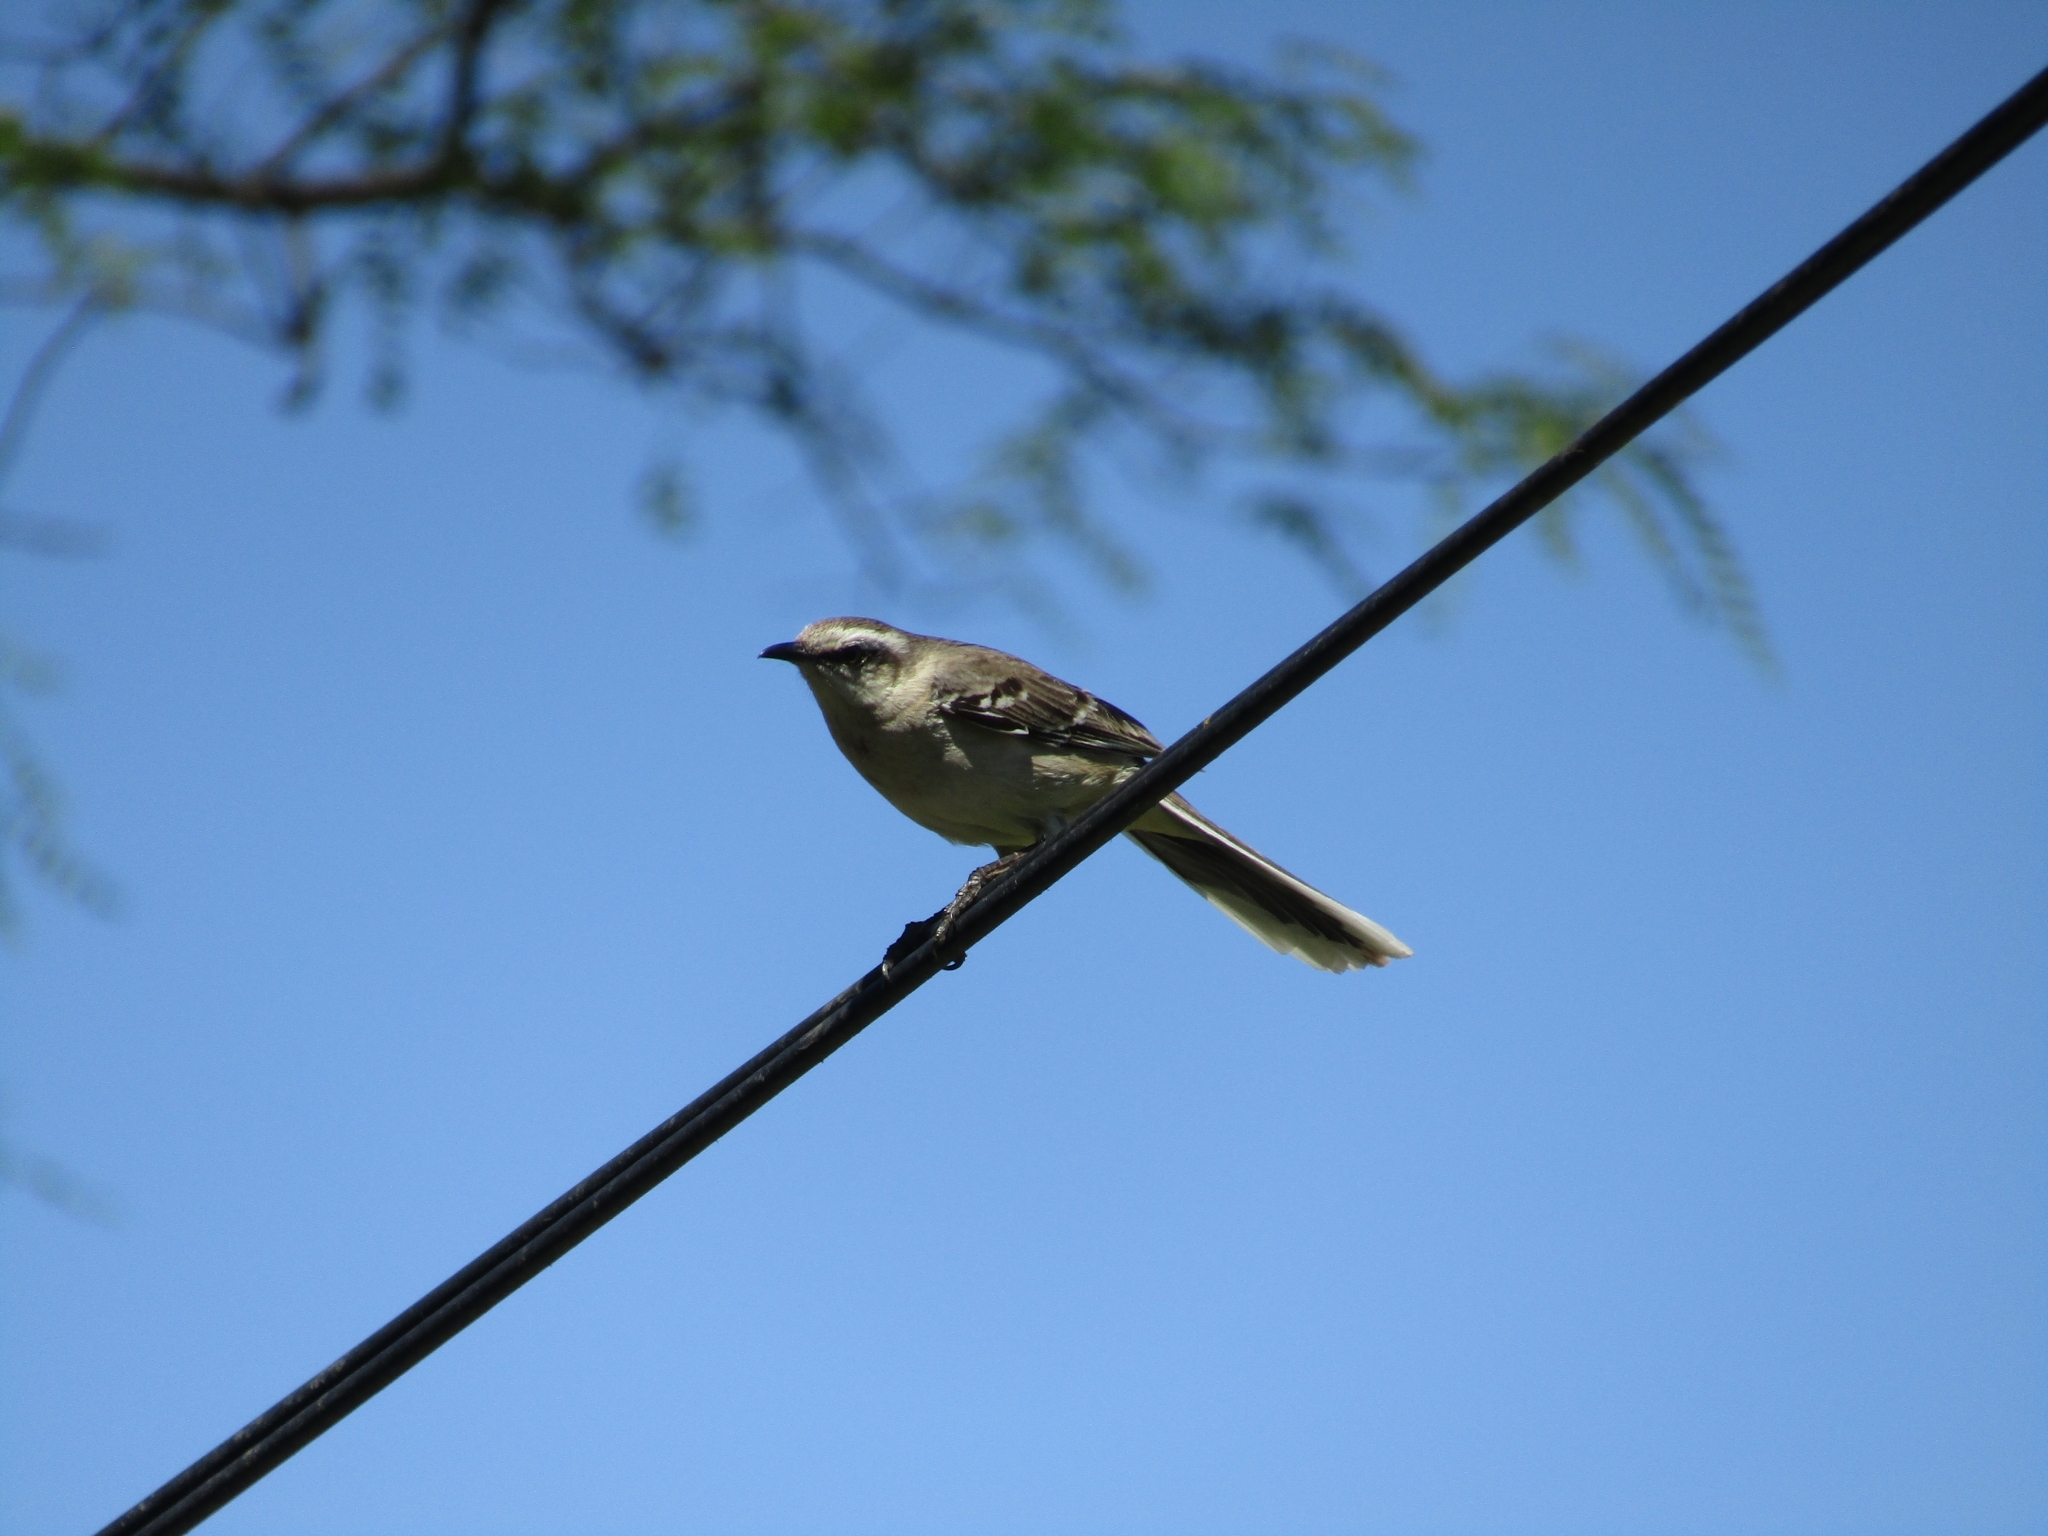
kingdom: Animalia
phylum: Chordata
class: Aves
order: Passeriformes
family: Mimidae
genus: Mimus
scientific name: Mimus saturninus
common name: Chalk-browed mockingbird
